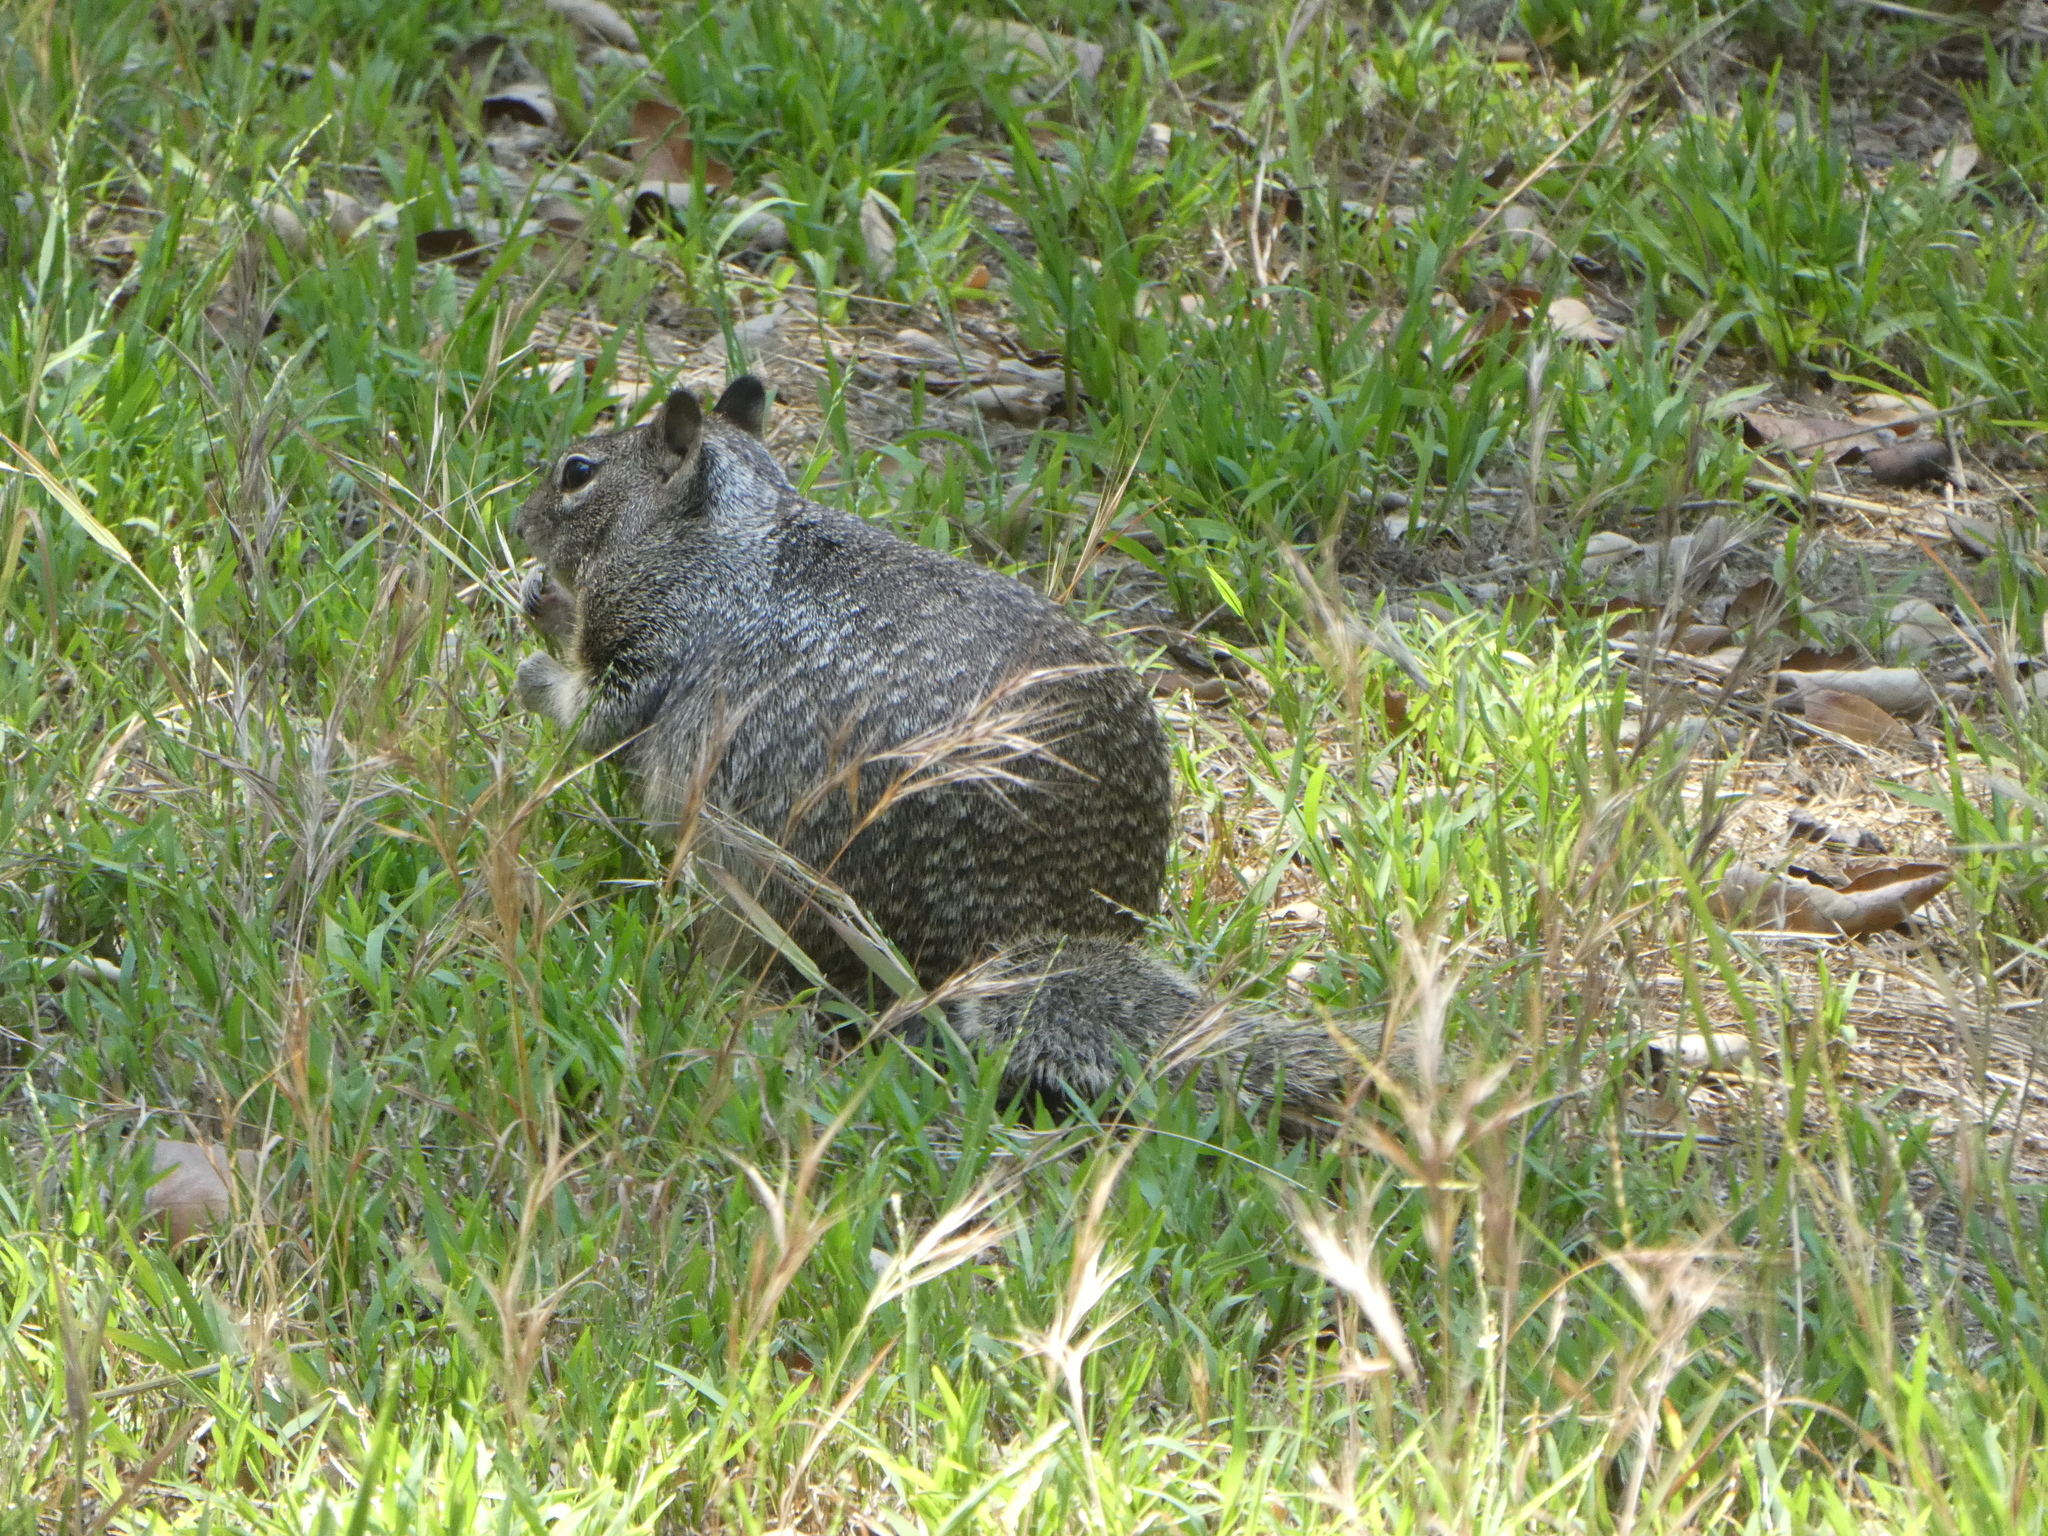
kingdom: Animalia
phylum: Chordata
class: Mammalia
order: Rodentia
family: Sciuridae
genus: Otospermophilus
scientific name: Otospermophilus beecheyi
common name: California ground squirrel
